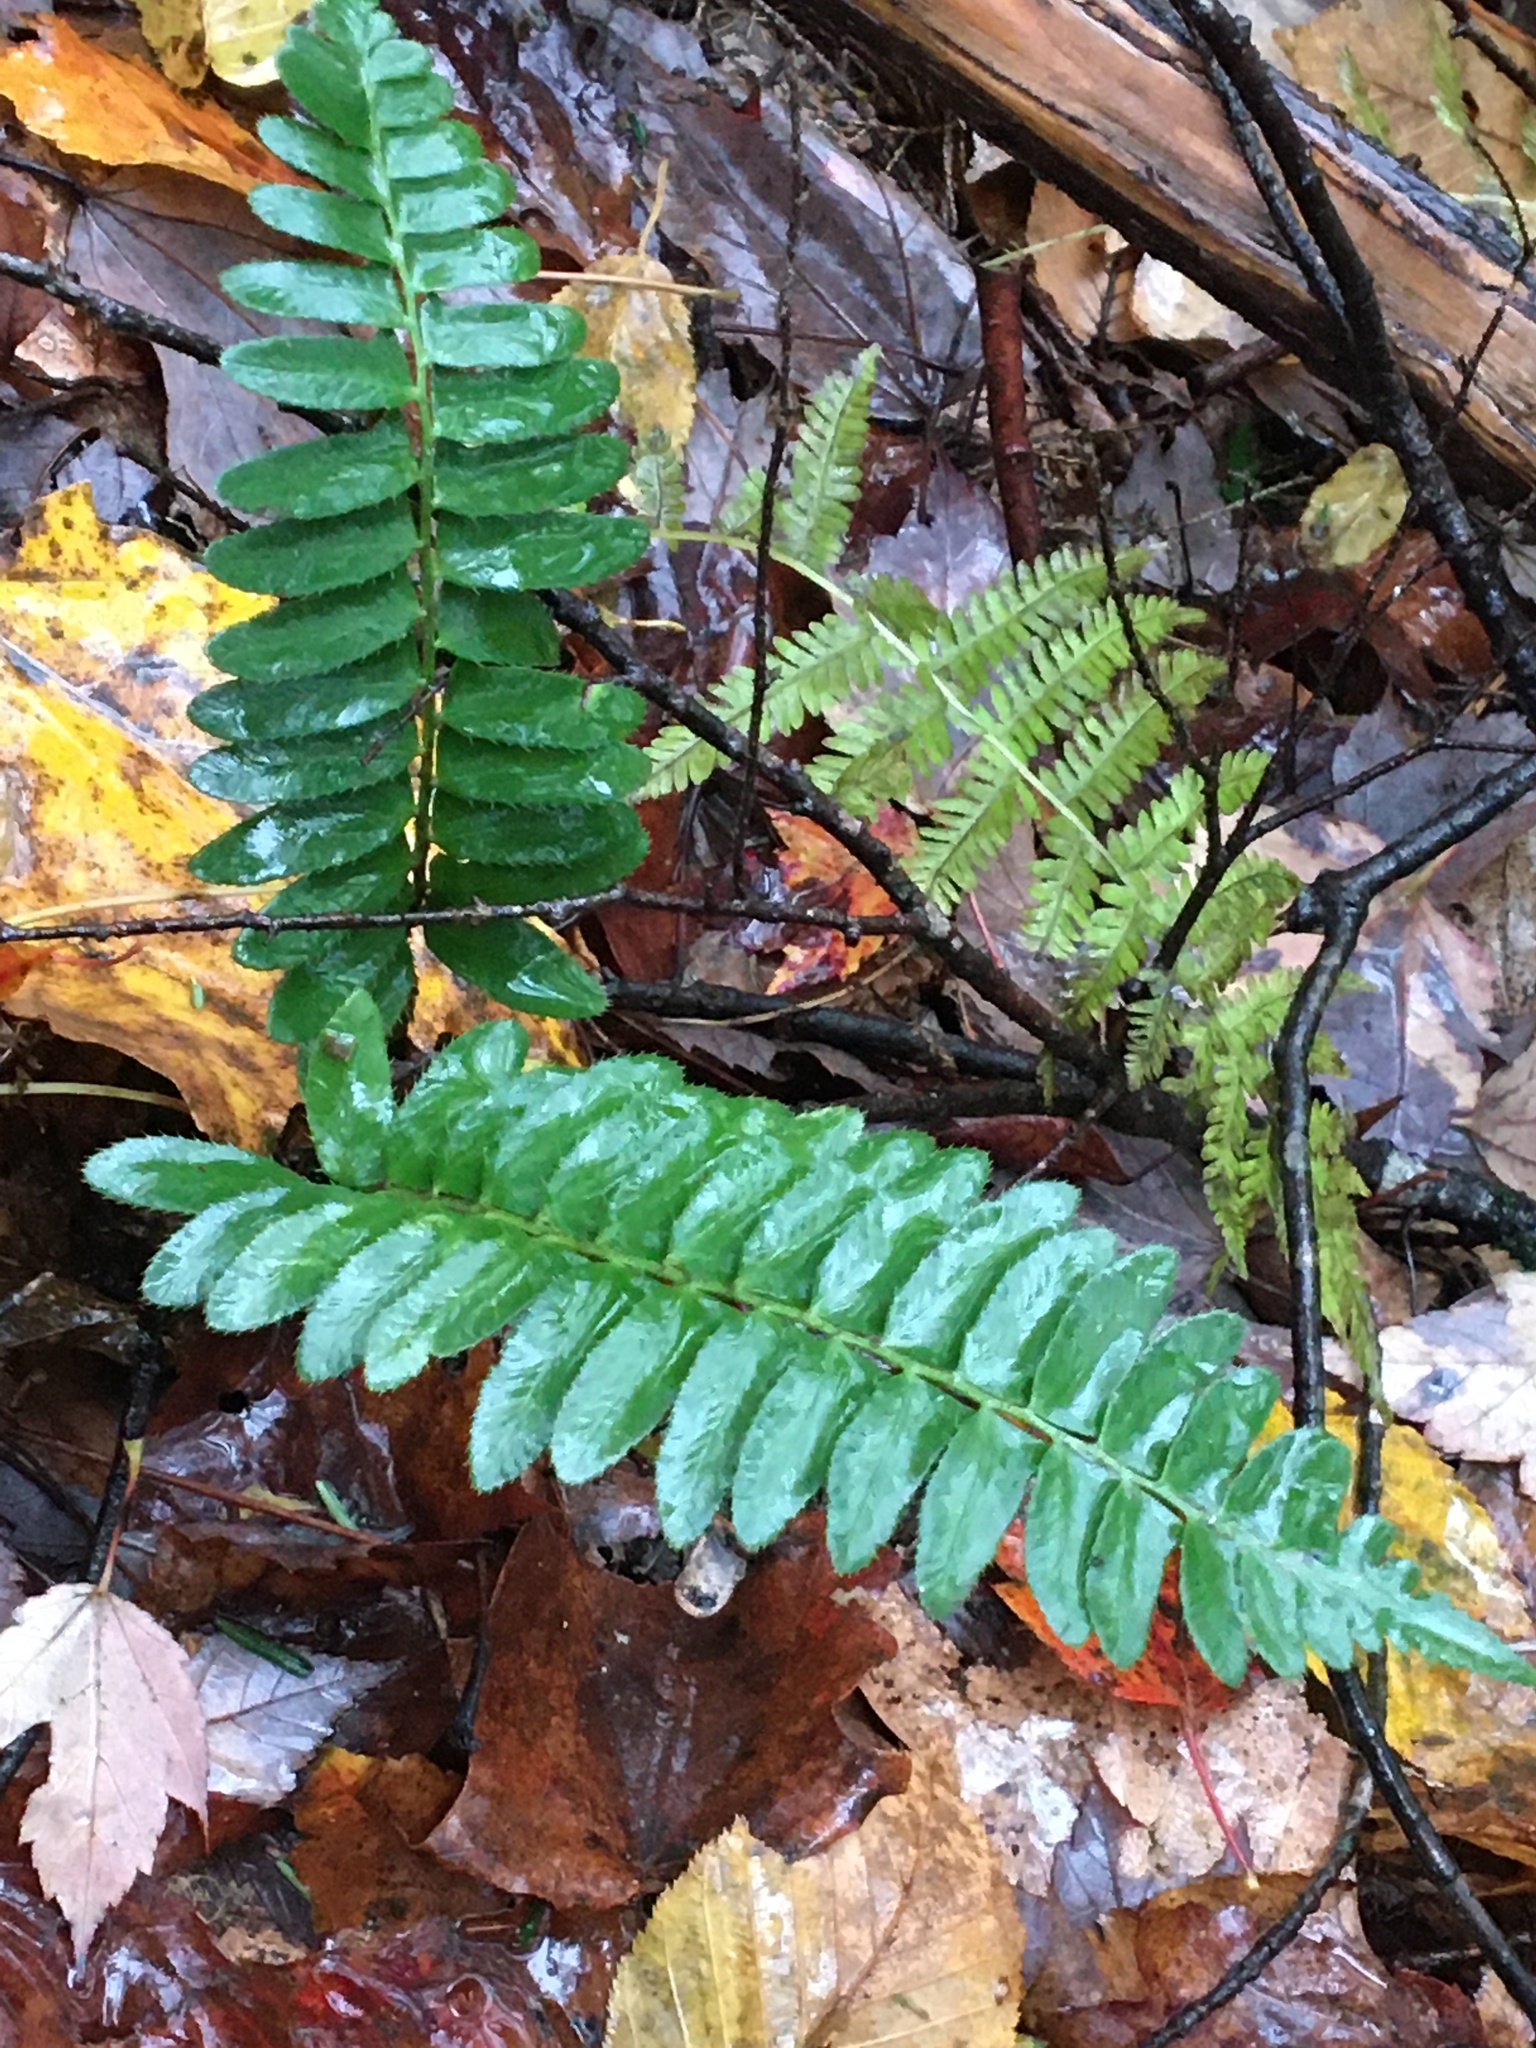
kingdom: Plantae
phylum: Tracheophyta
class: Polypodiopsida
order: Polypodiales
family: Dryopteridaceae
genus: Polystichum
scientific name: Polystichum acrostichoides
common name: Christmas fern
